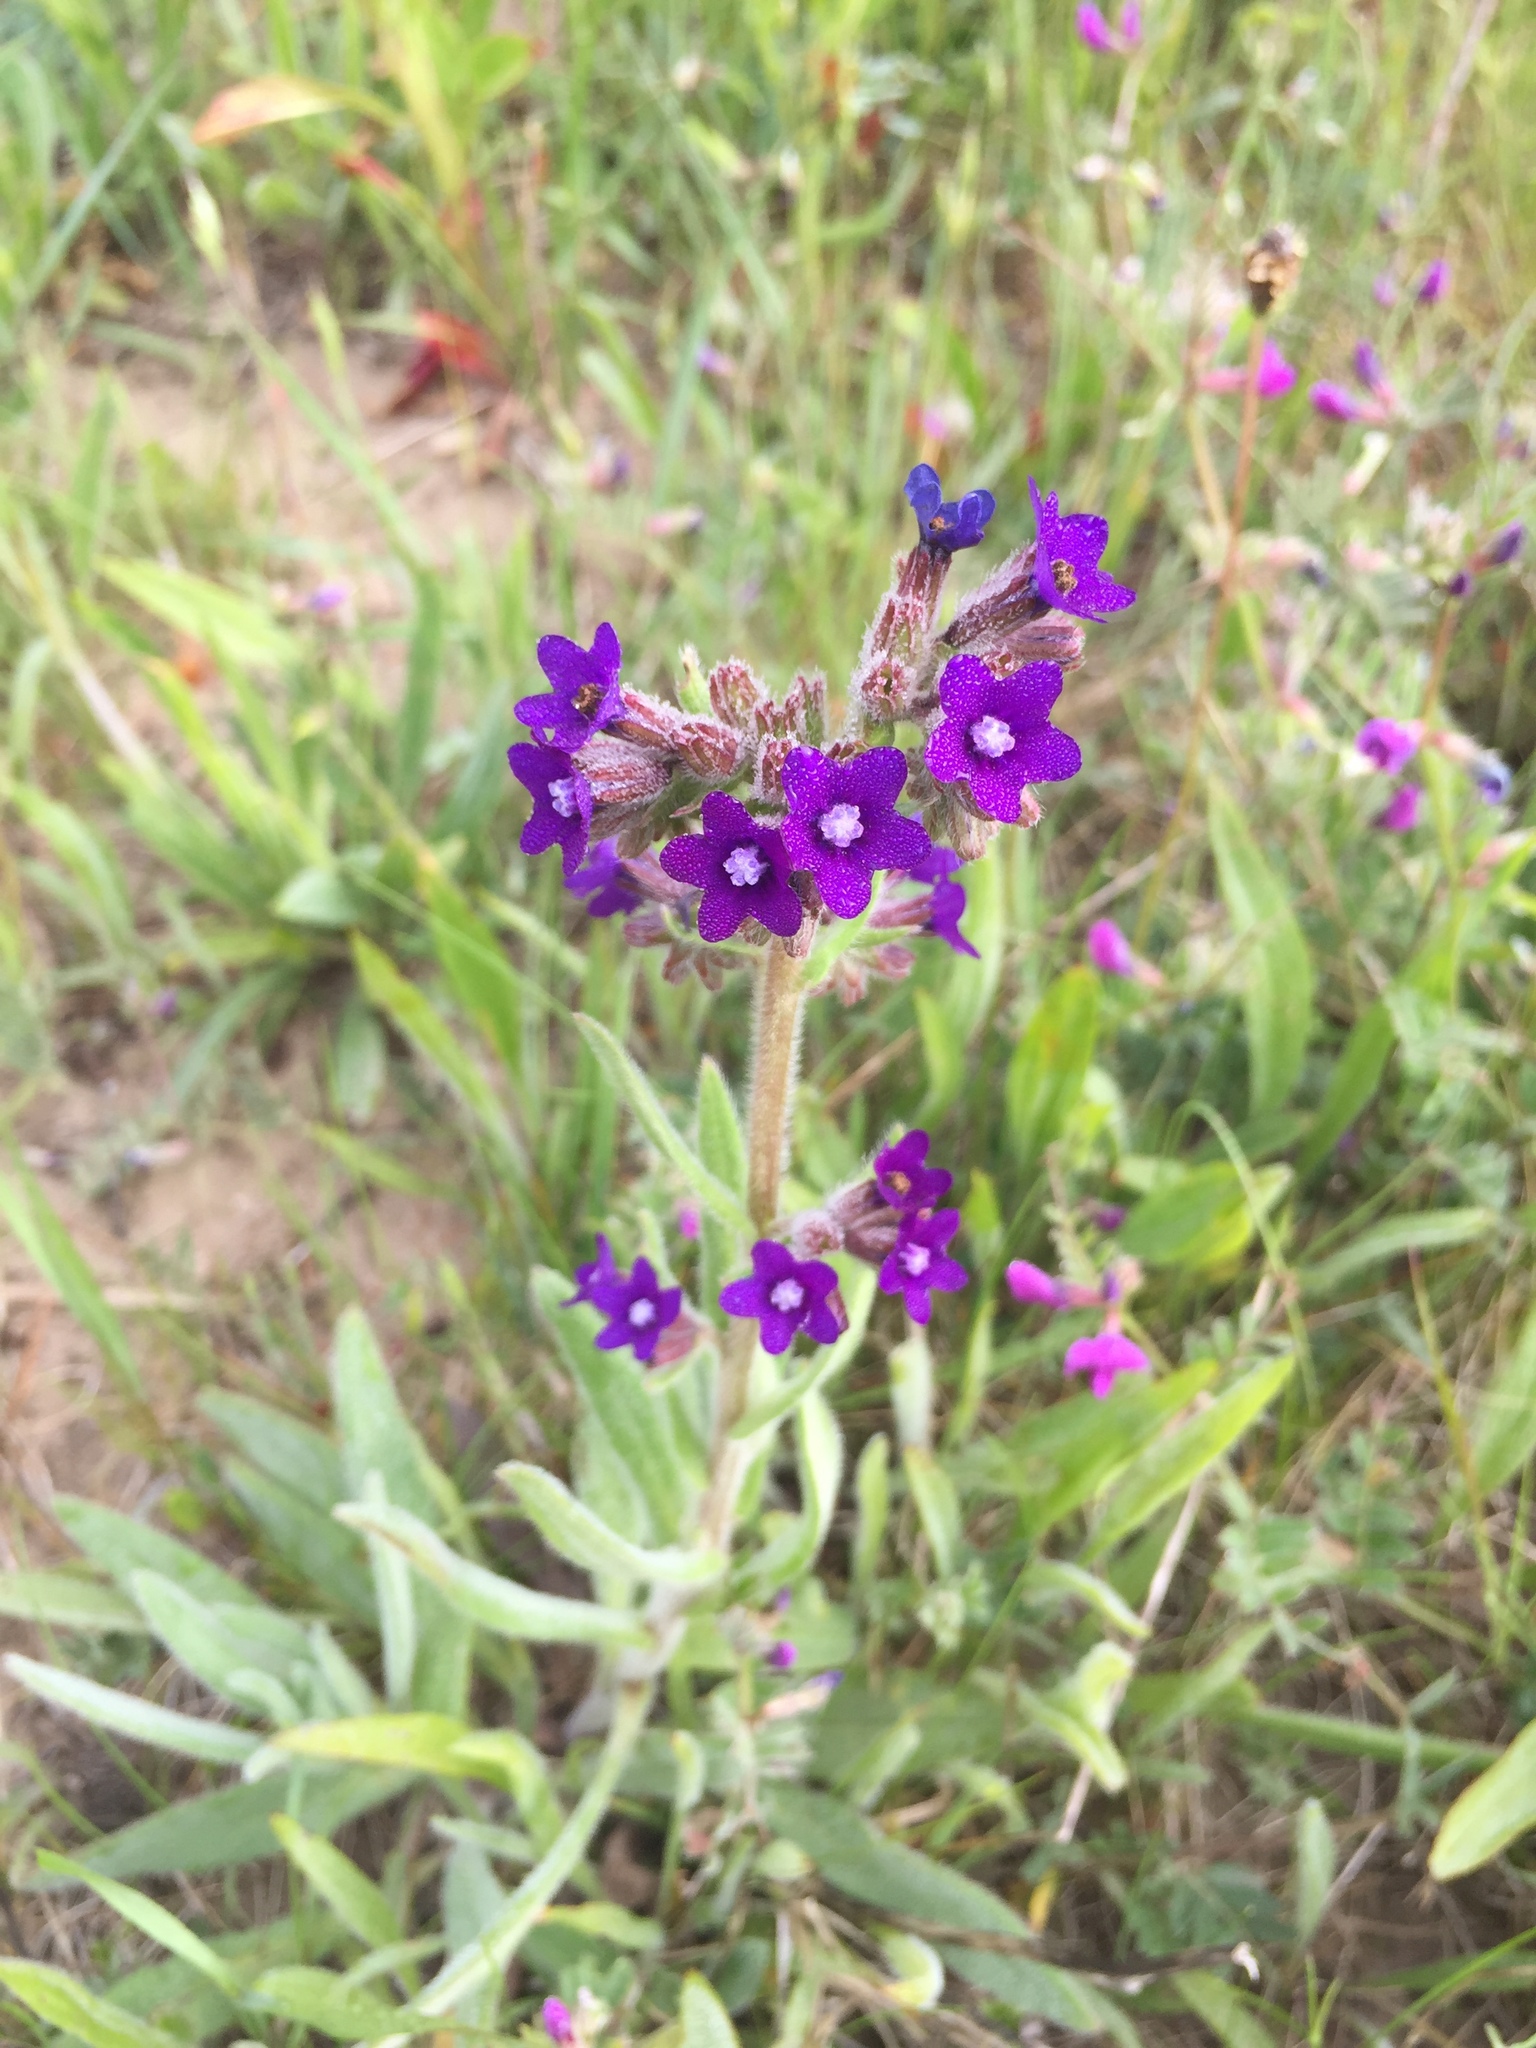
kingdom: Plantae
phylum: Tracheophyta
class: Magnoliopsida
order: Boraginales
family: Boraginaceae
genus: Anchusa
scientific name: Anchusa officinalis
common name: Alkanet
